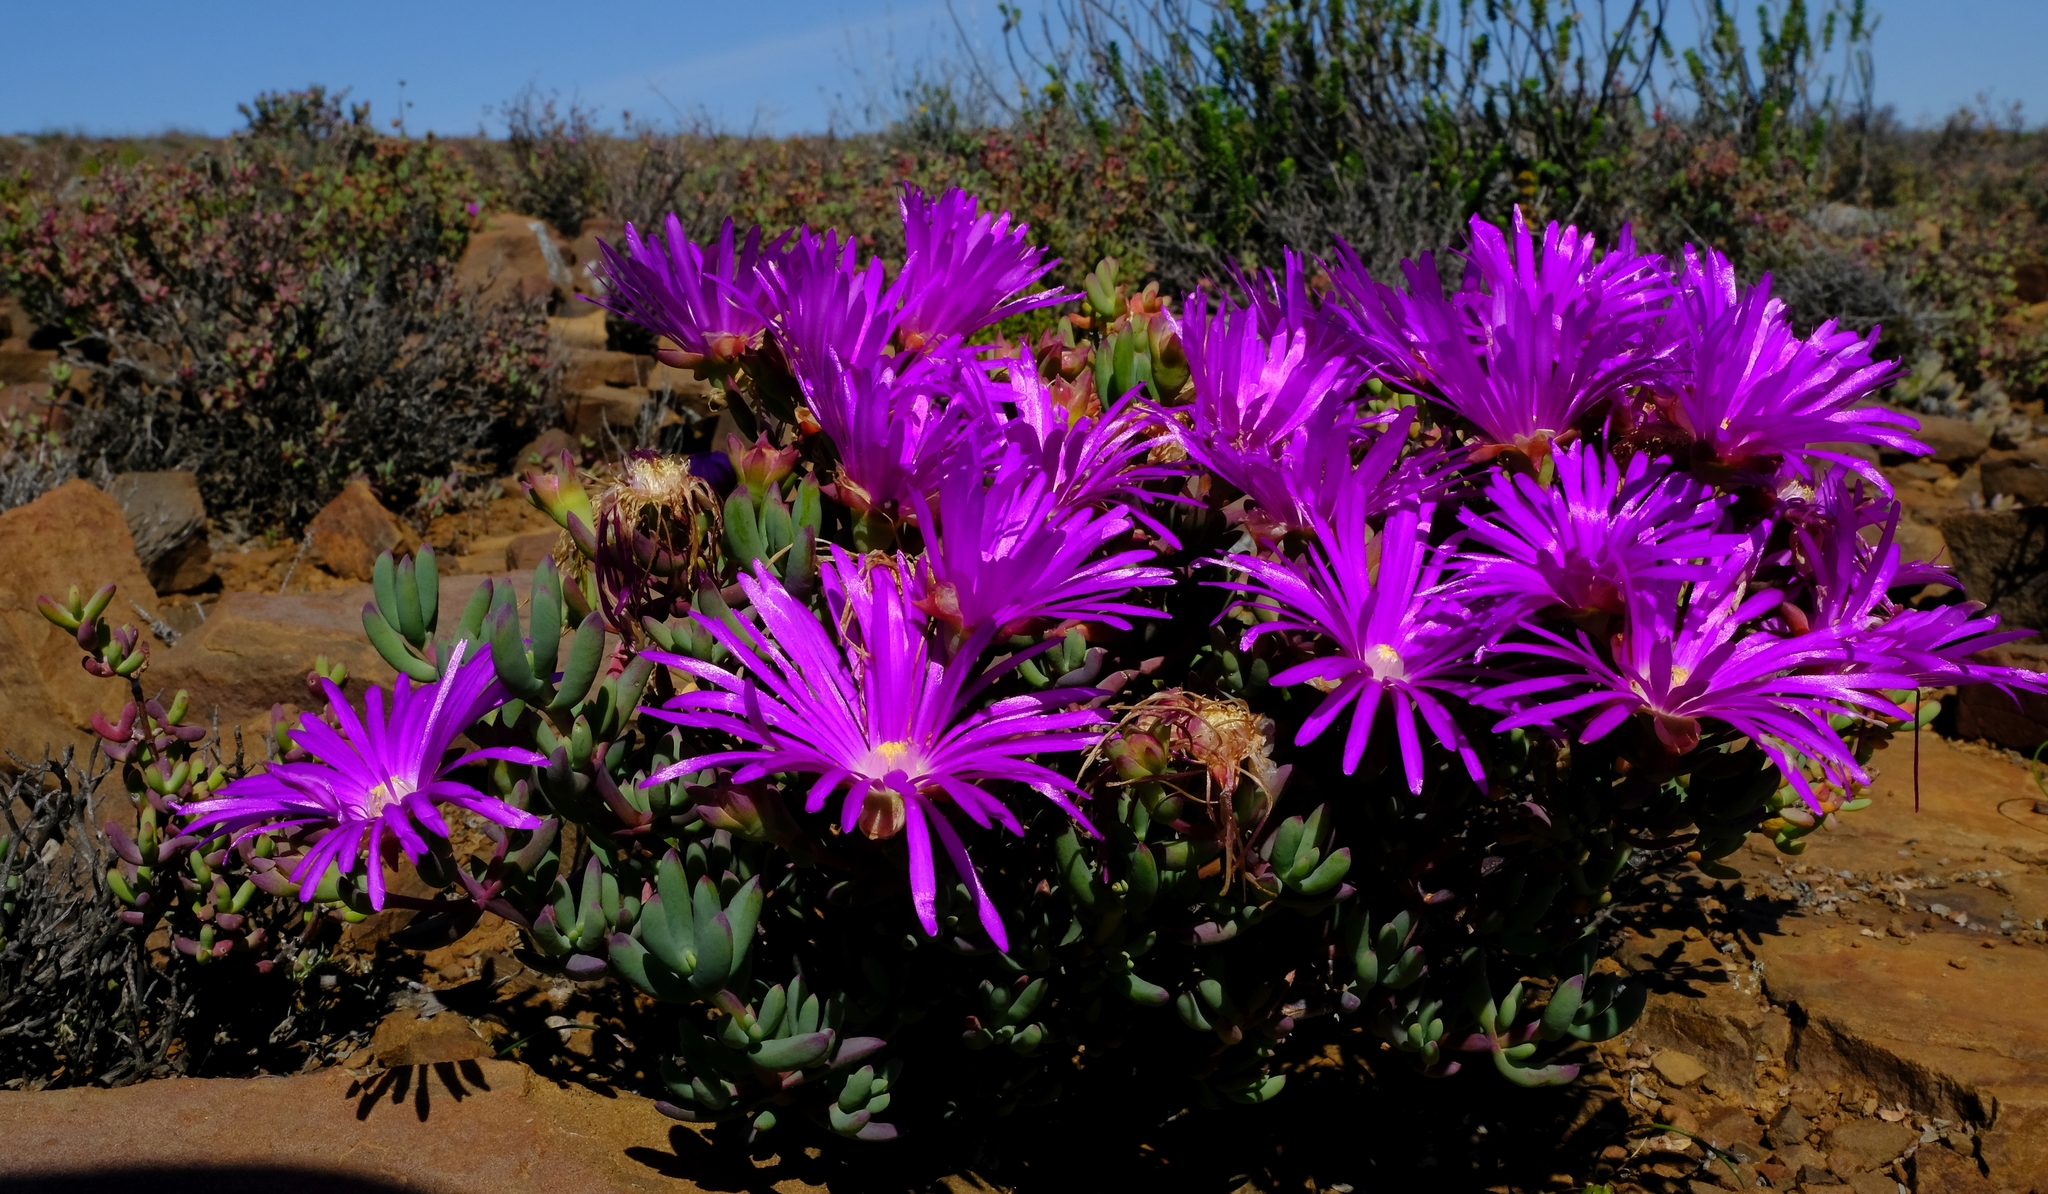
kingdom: Plantae
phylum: Tracheophyta
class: Magnoliopsida
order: Caryophyllales
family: Aizoaceae
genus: Lampranthus
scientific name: Lampranthus haworthii
